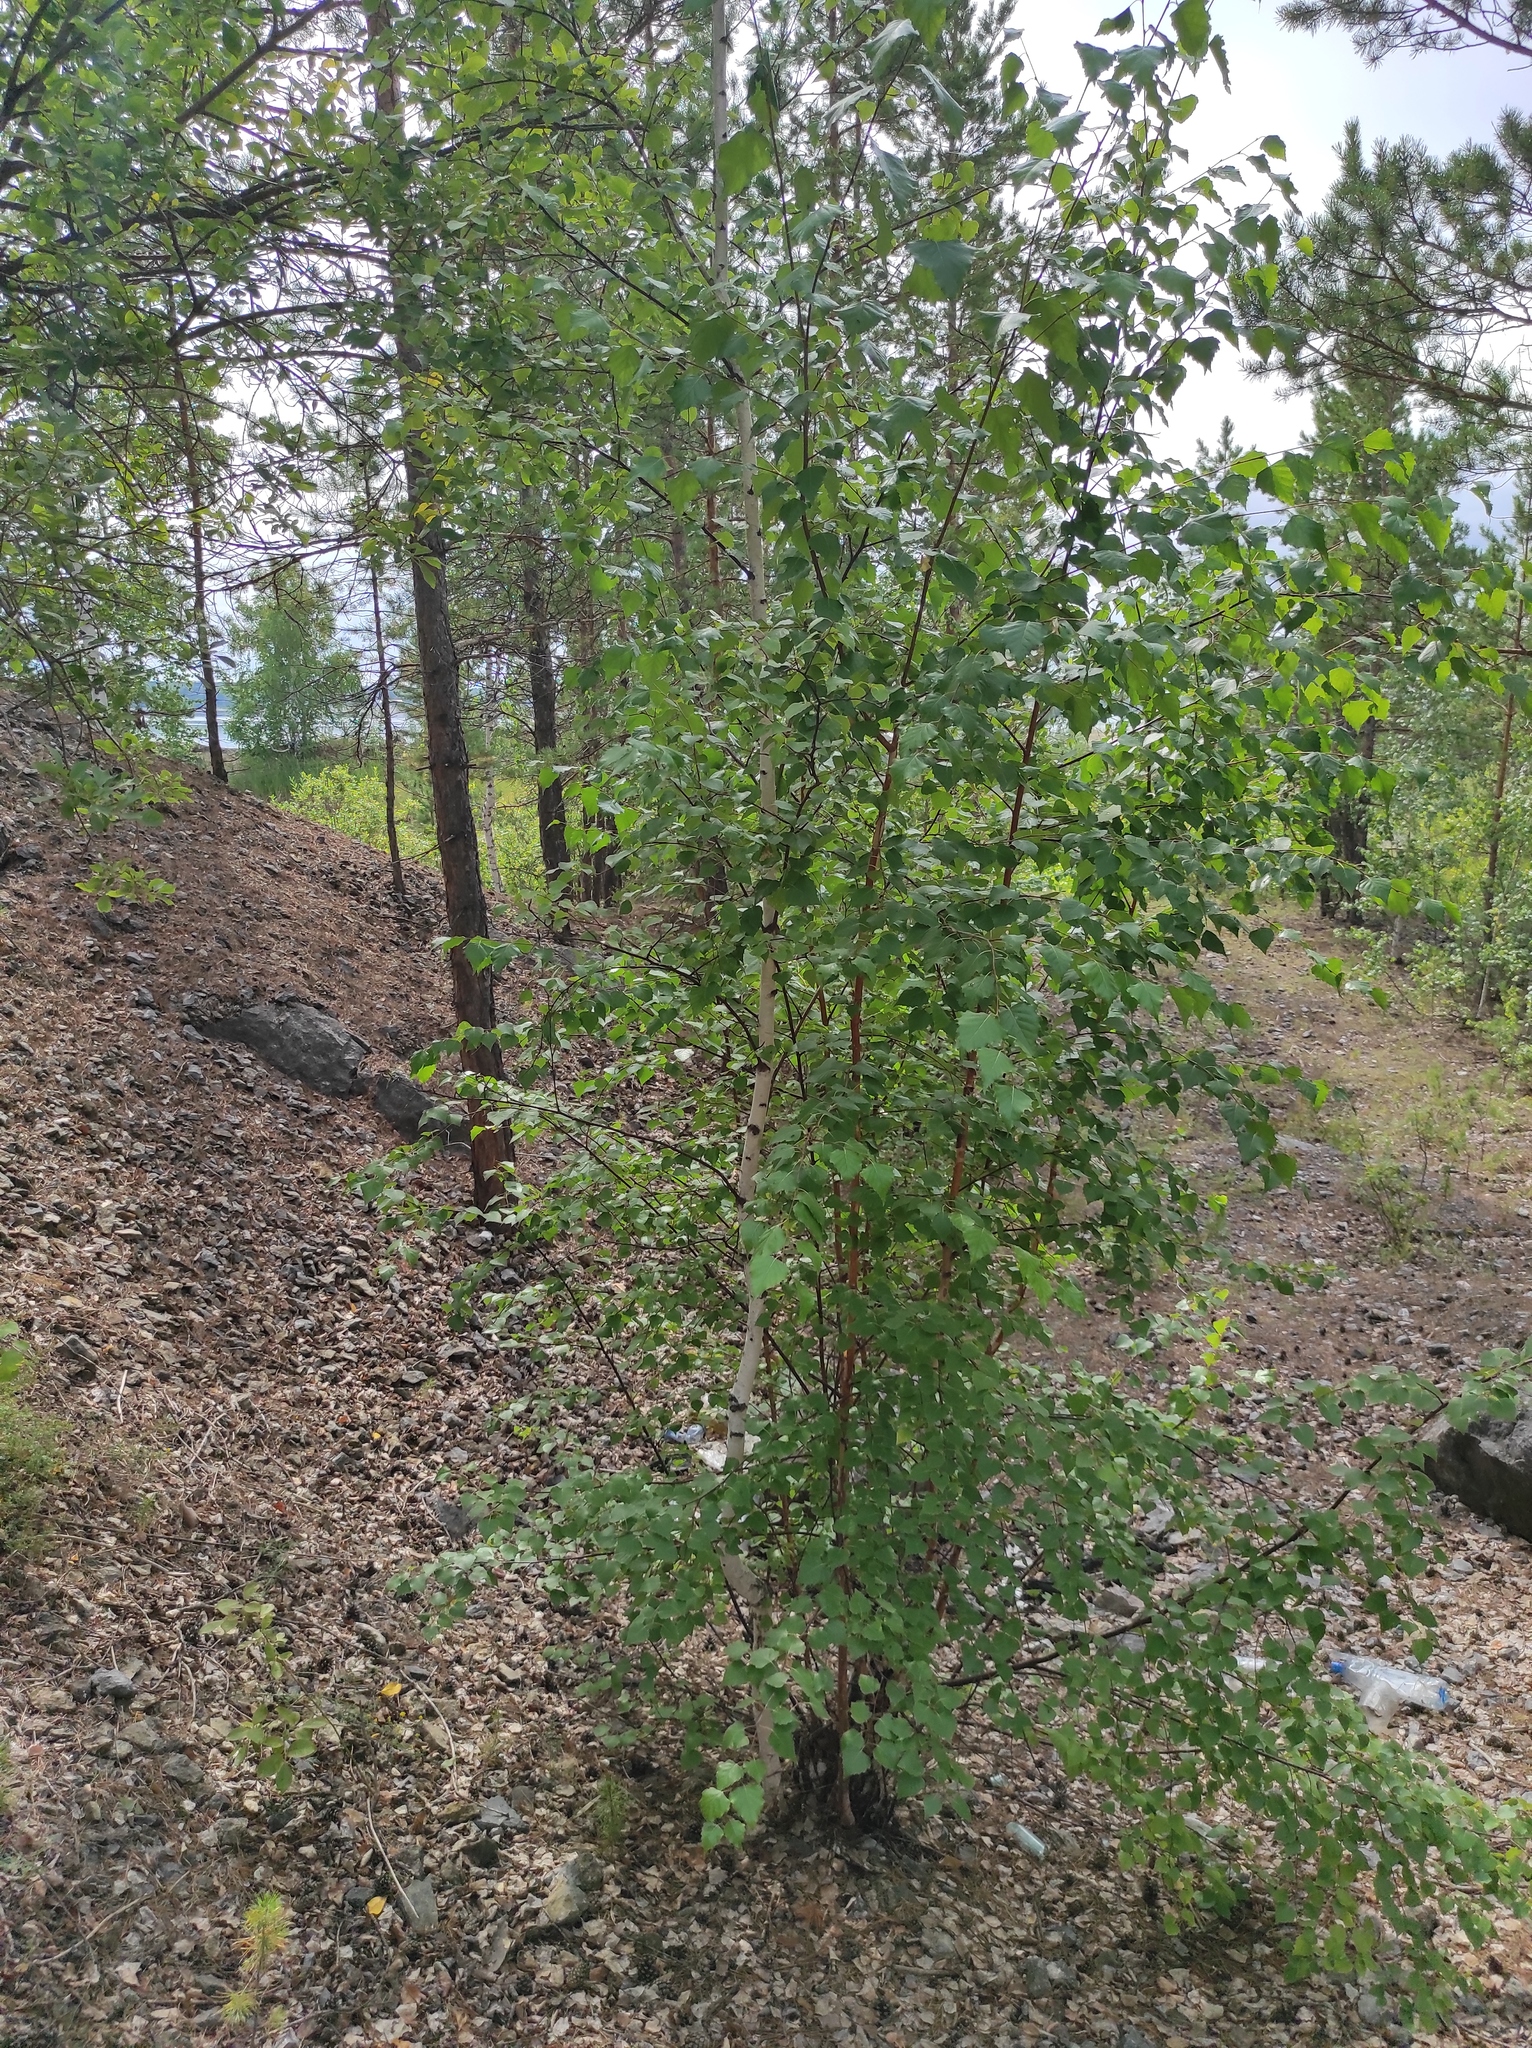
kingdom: Plantae
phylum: Tracheophyta
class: Magnoliopsida
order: Fagales
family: Betulaceae
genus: Betula
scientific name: Betula pendula
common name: Silver birch
